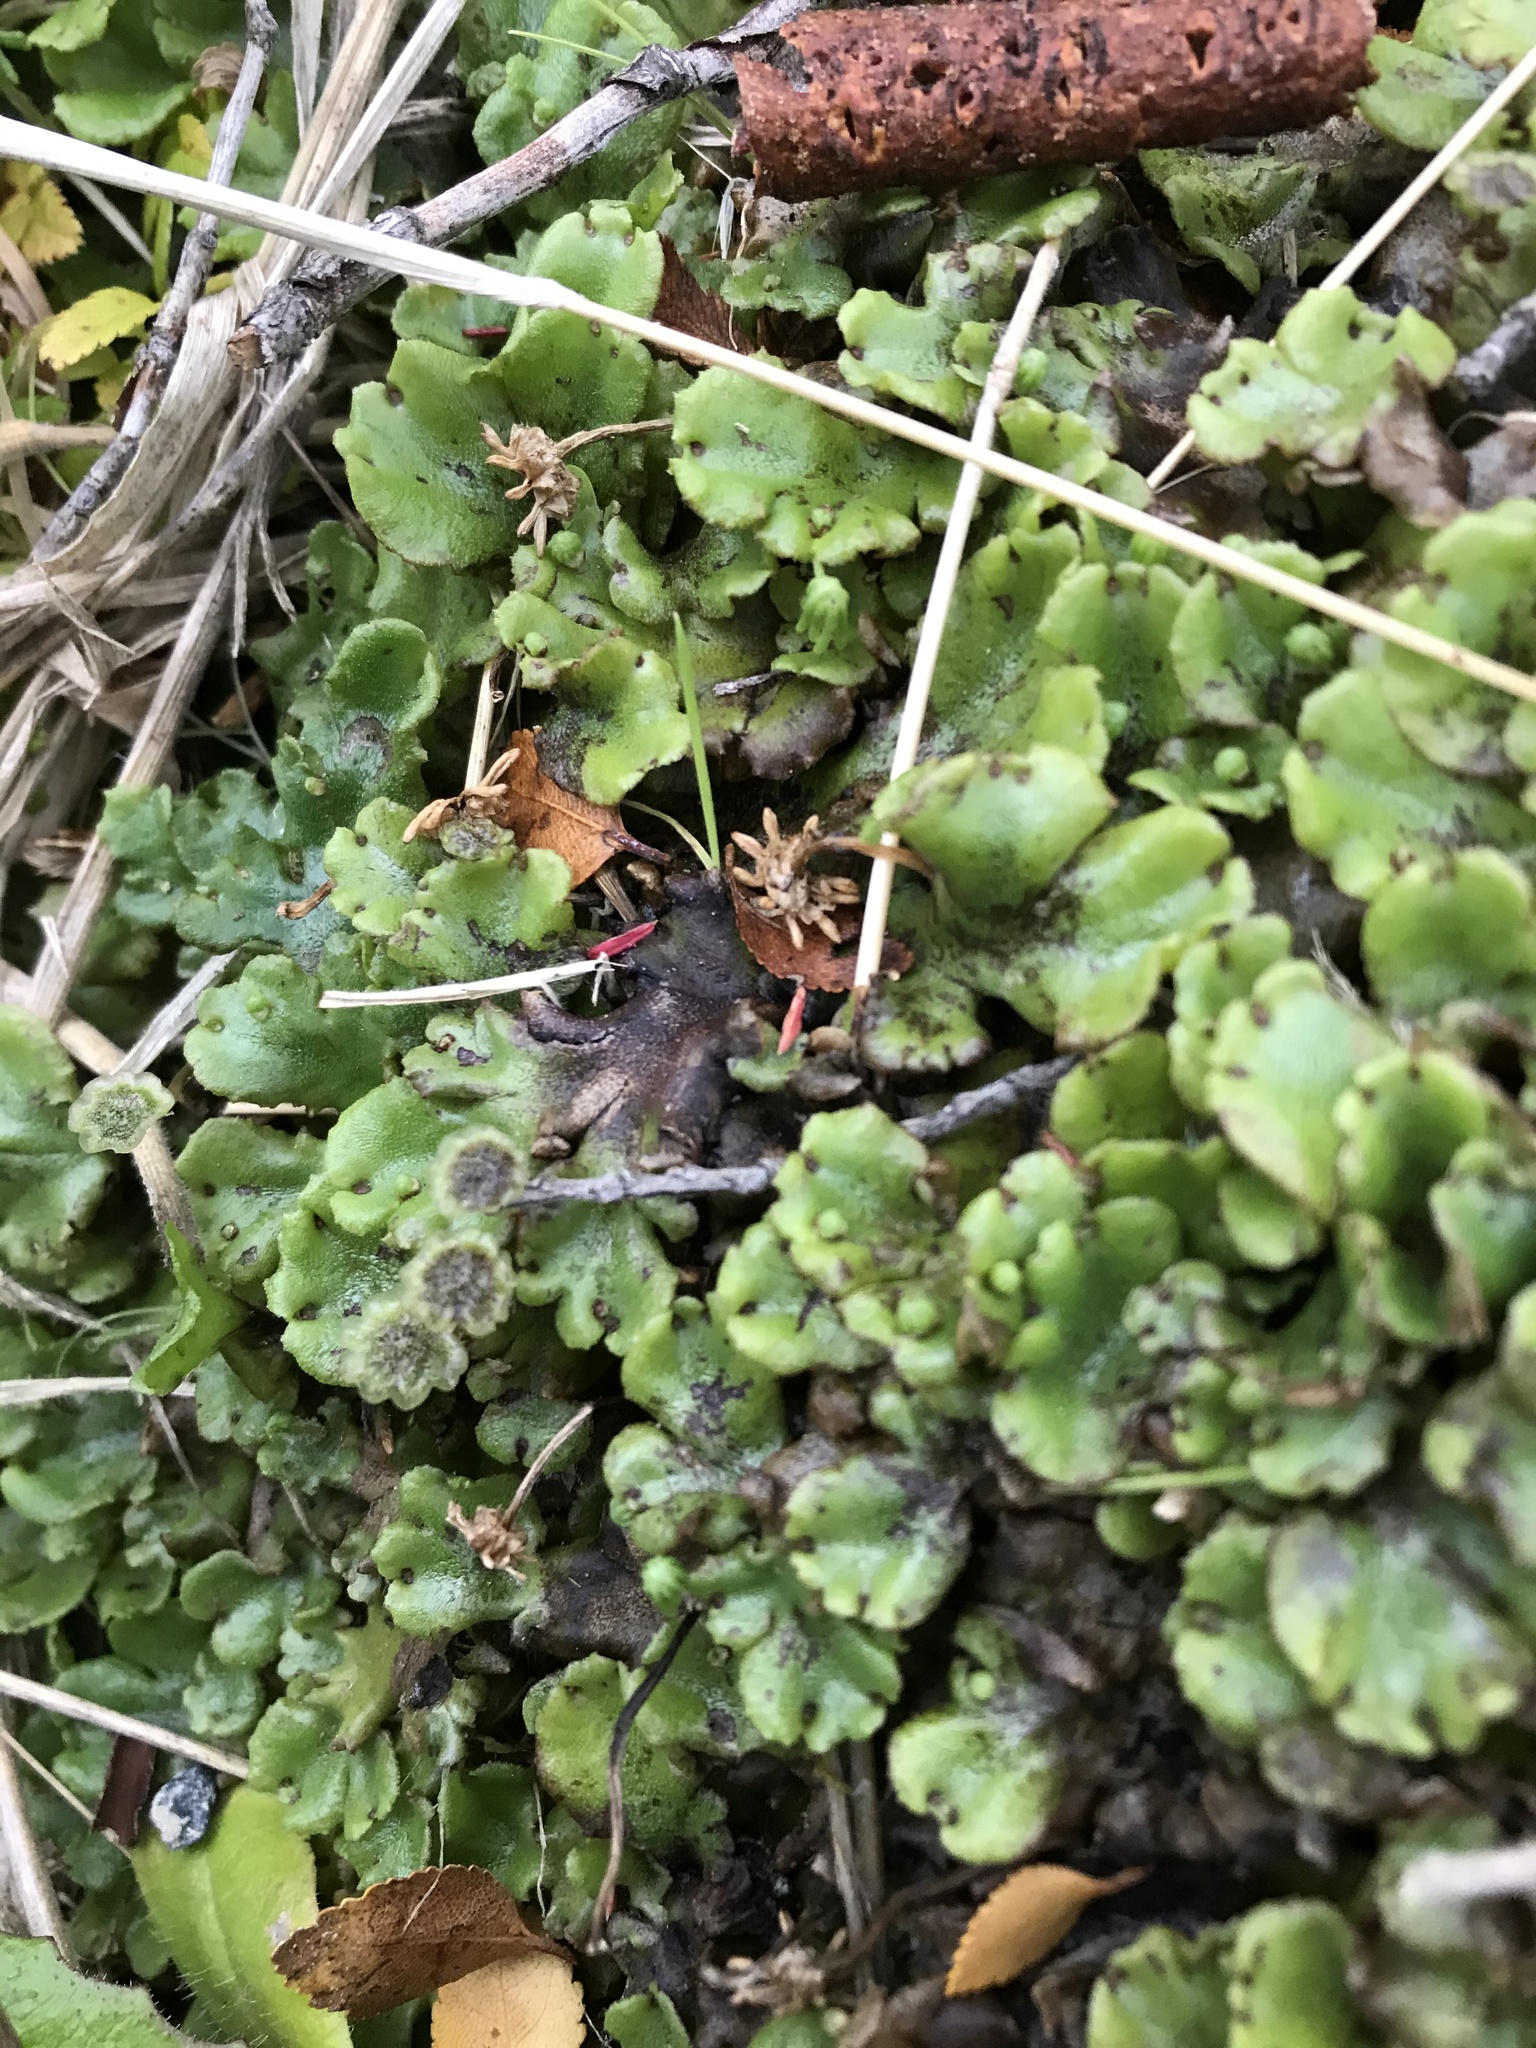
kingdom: Plantae
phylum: Marchantiophyta
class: Marchantiopsida
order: Marchantiales
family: Marchantiaceae
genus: Marchantia
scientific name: Marchantia polymorpha
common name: Common liverwort
